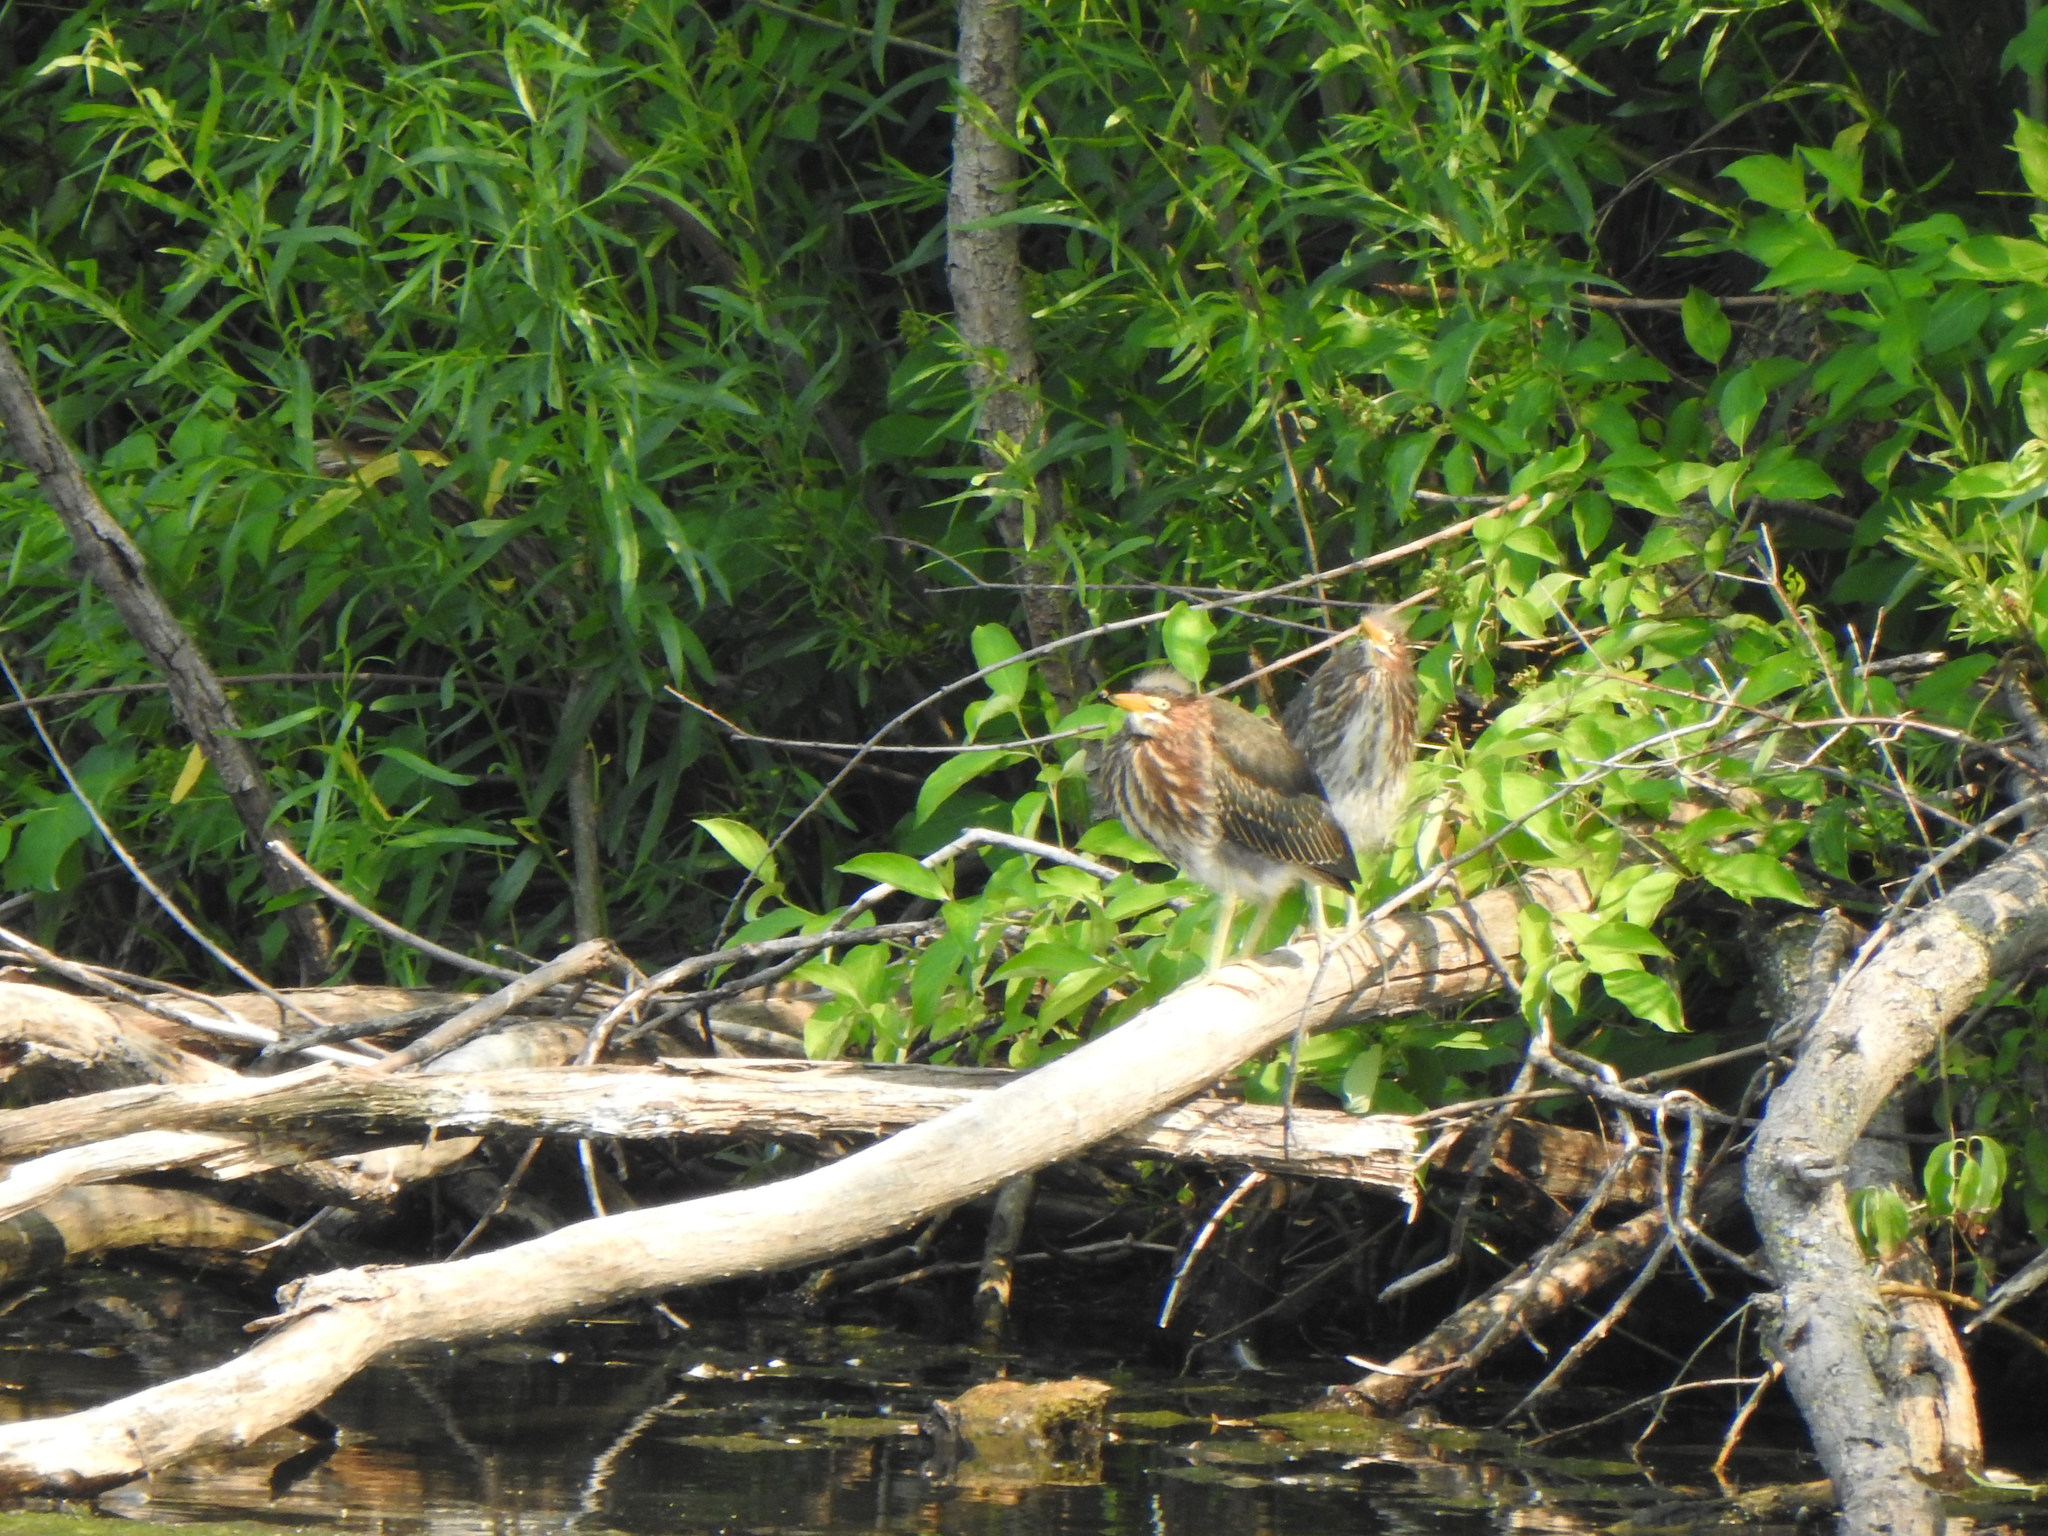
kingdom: Animalia
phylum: Chordata
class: Aves
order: Pelecaniformes
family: Ardeidae
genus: Butorides
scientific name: Butorides virescens
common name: Green heron
